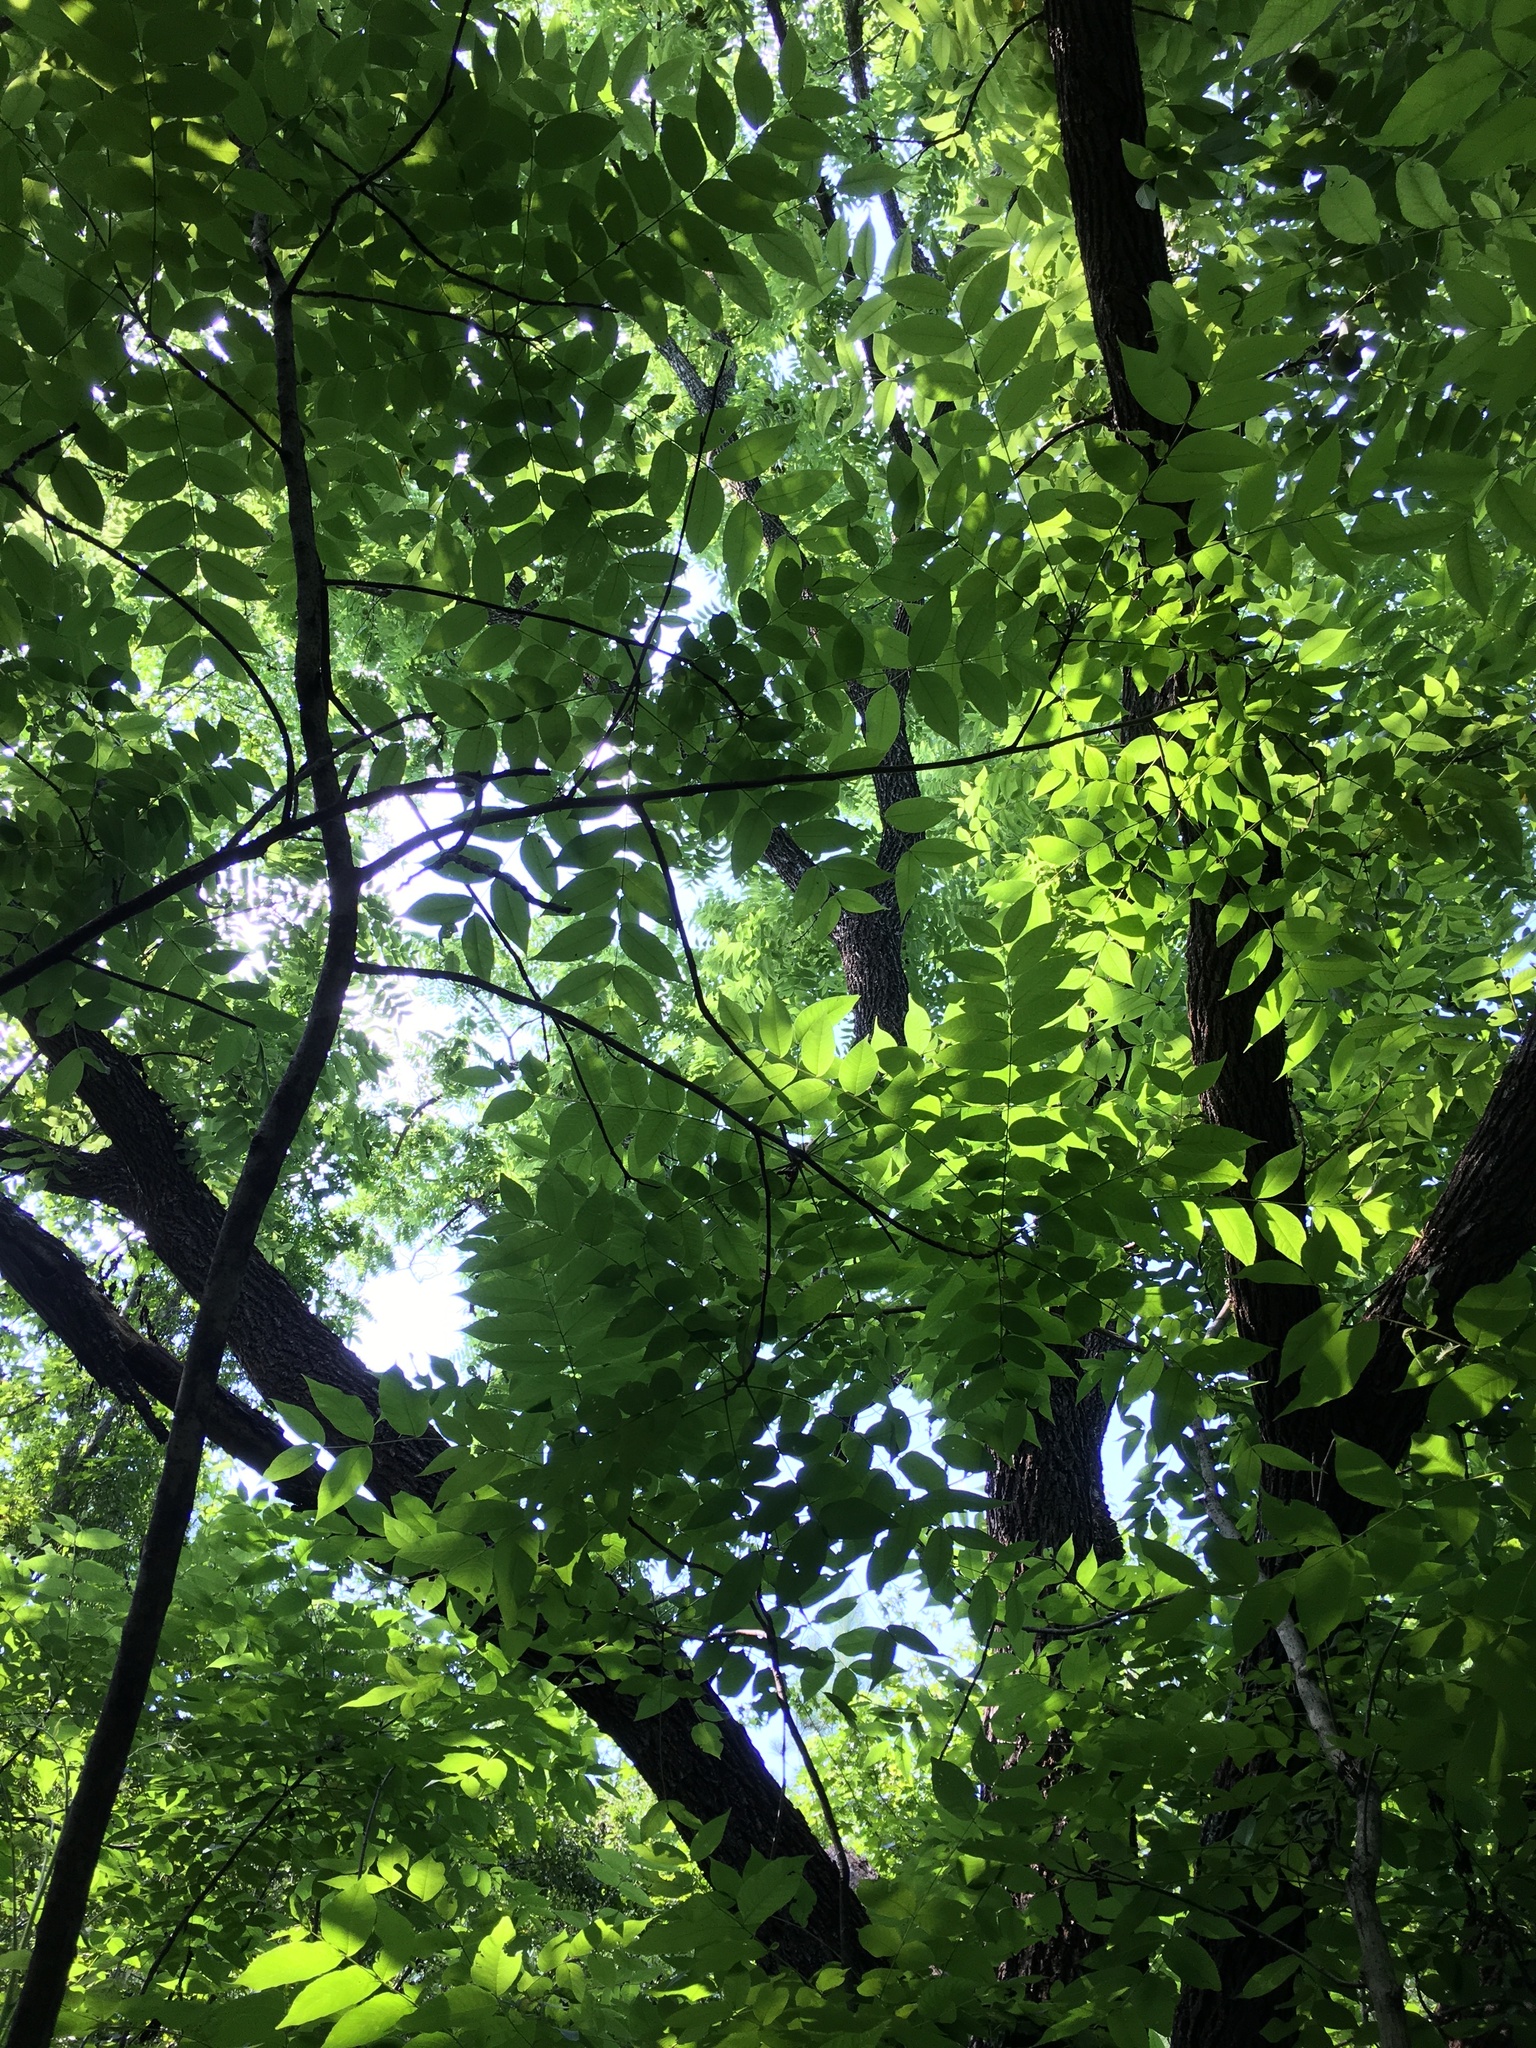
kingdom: Plantae
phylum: Tracheophyta
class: Magnoliopsida
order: Fagales
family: Juglandaceae
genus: Juglans
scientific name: Juglans nigra
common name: Black walnut
